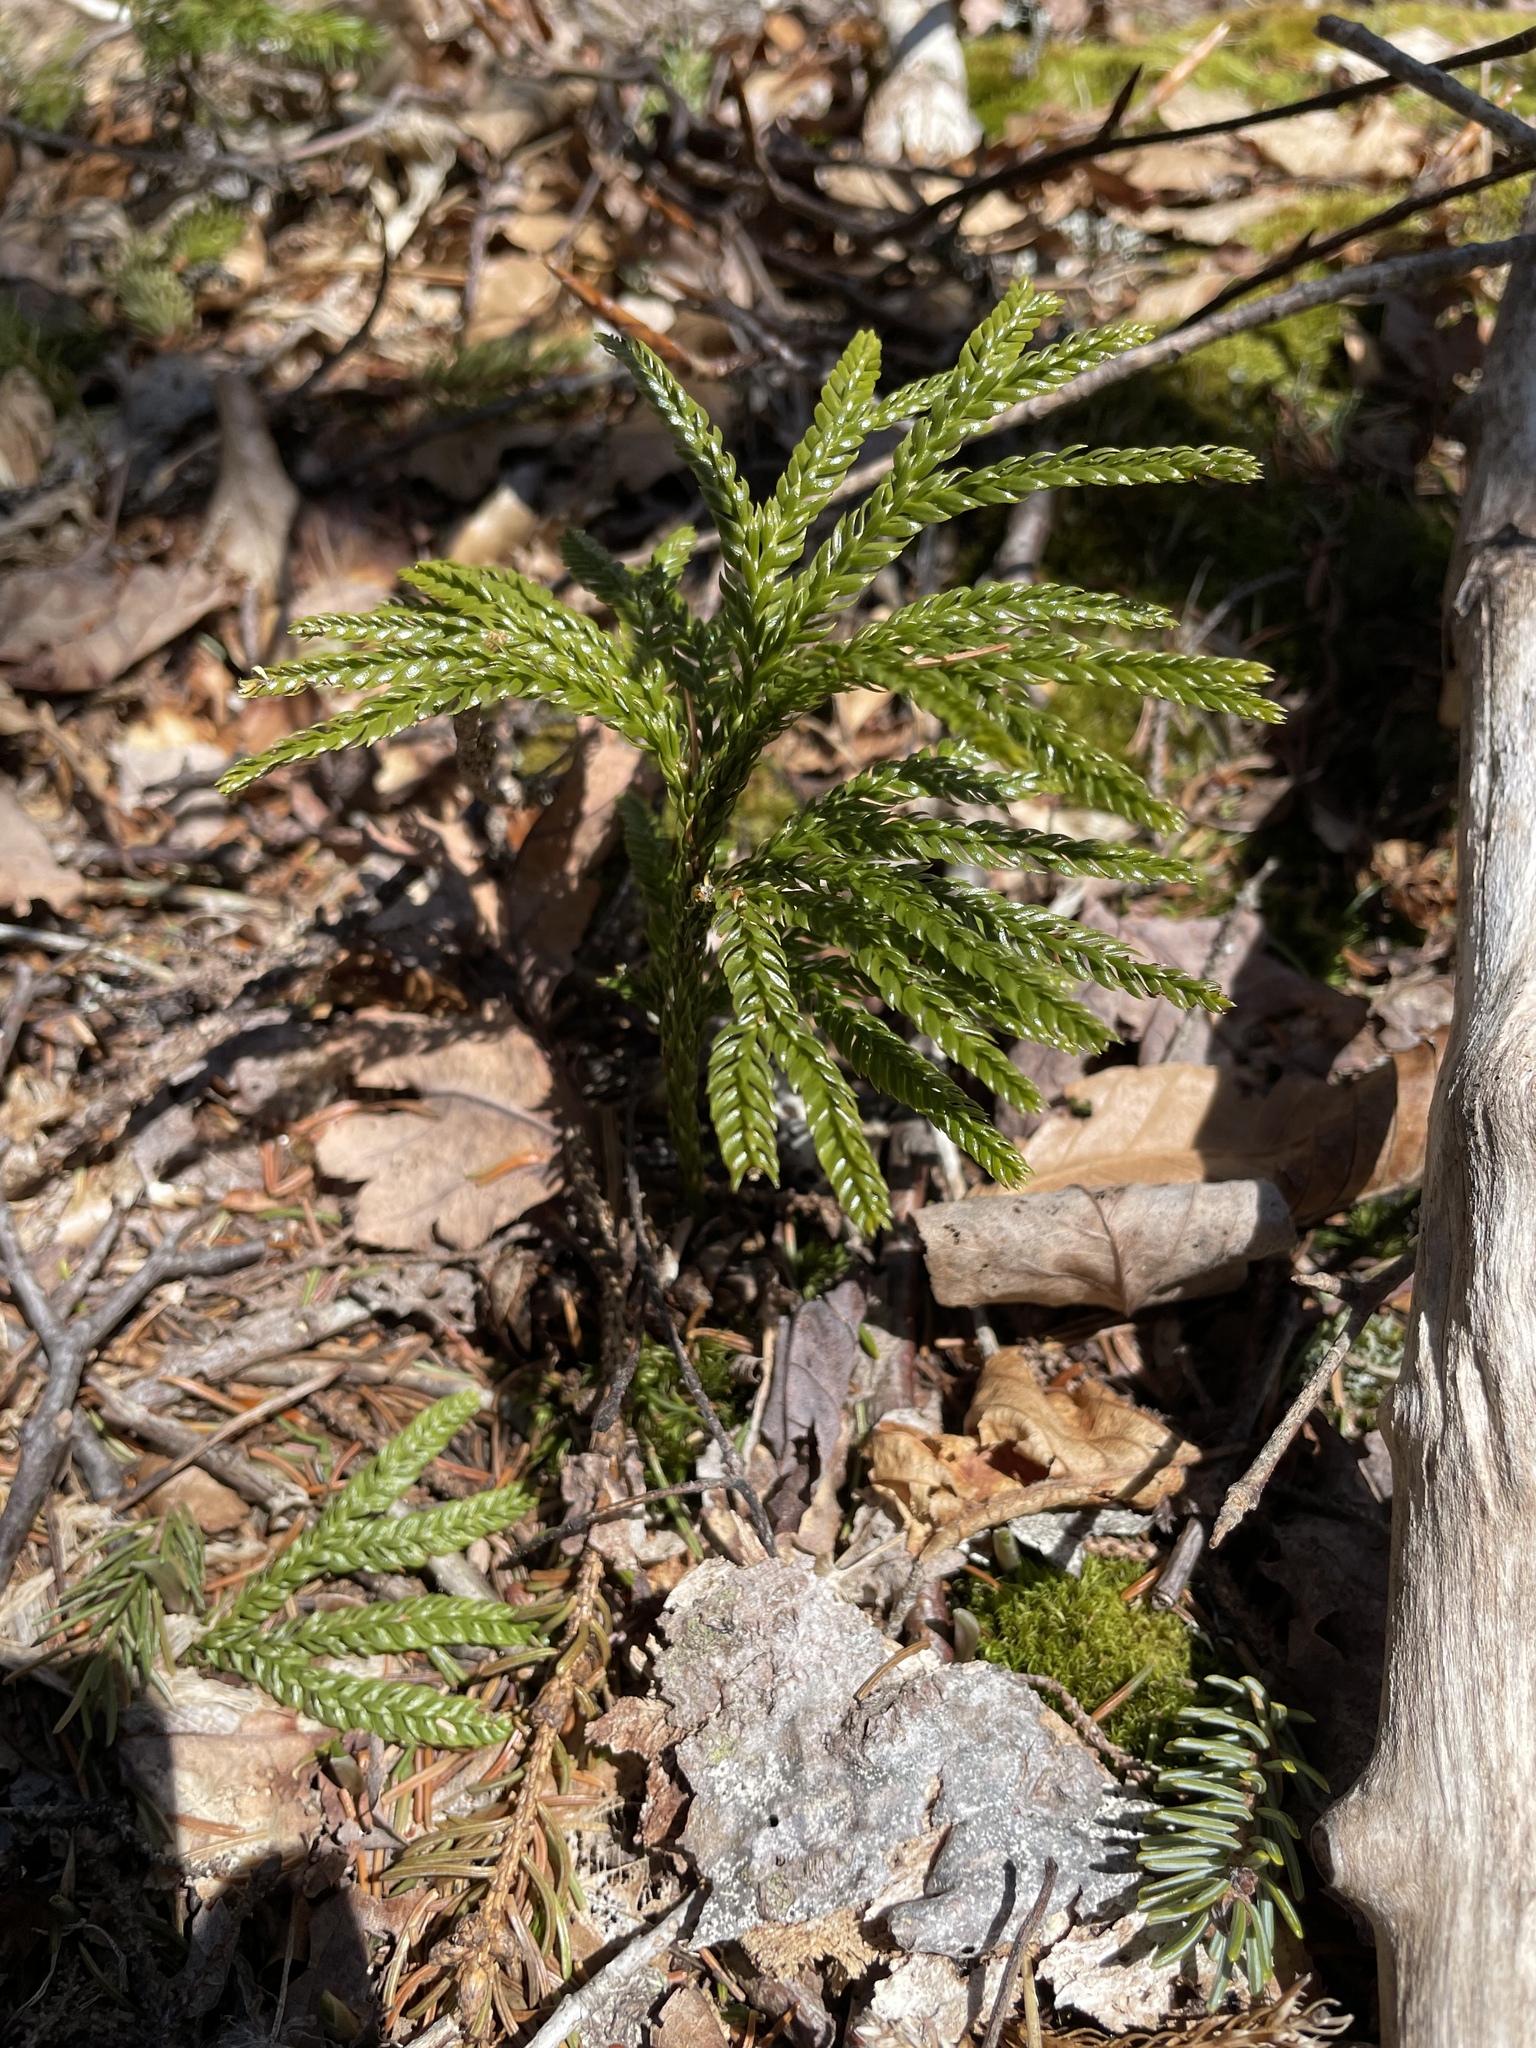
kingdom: Plantae
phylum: Tracheophyta
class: Lycopodiopsida
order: Lycopodiales
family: Lycopodiaceae
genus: Dendrolycopodium
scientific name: Dendrolycopodium obscurum
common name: Common ground-pine
